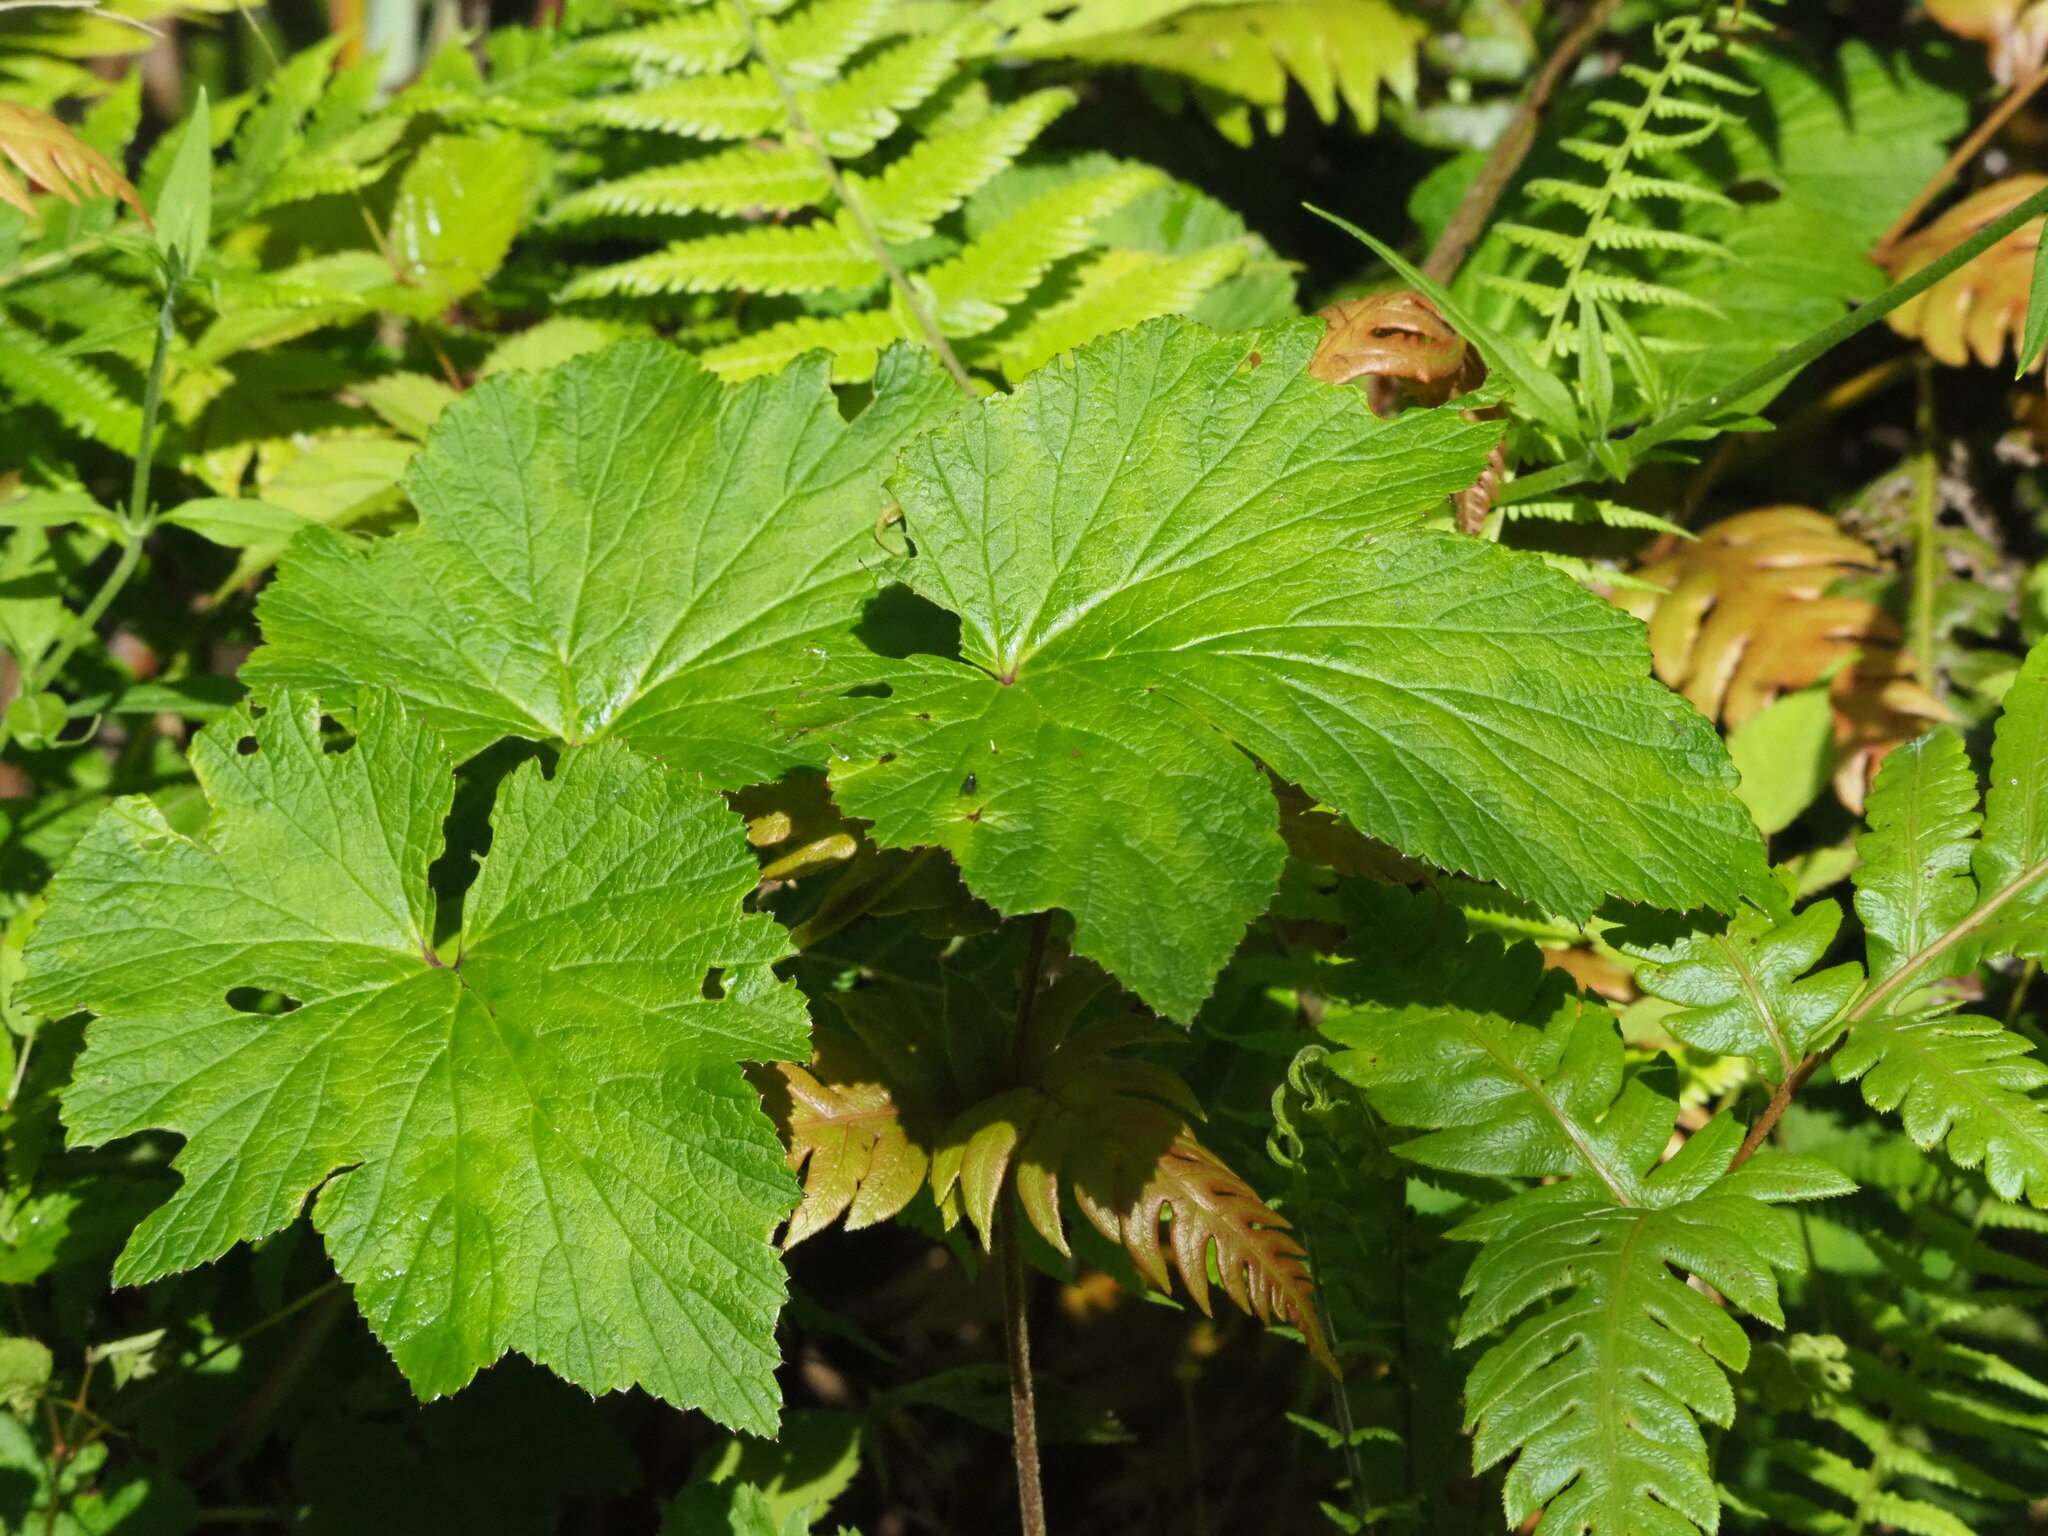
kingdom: Plantae
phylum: Tracheophyta
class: Magnoliopsida
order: Ranunculales
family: Ranunculaceae
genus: Eriocapitella
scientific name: Eriocapitella vitifolia
